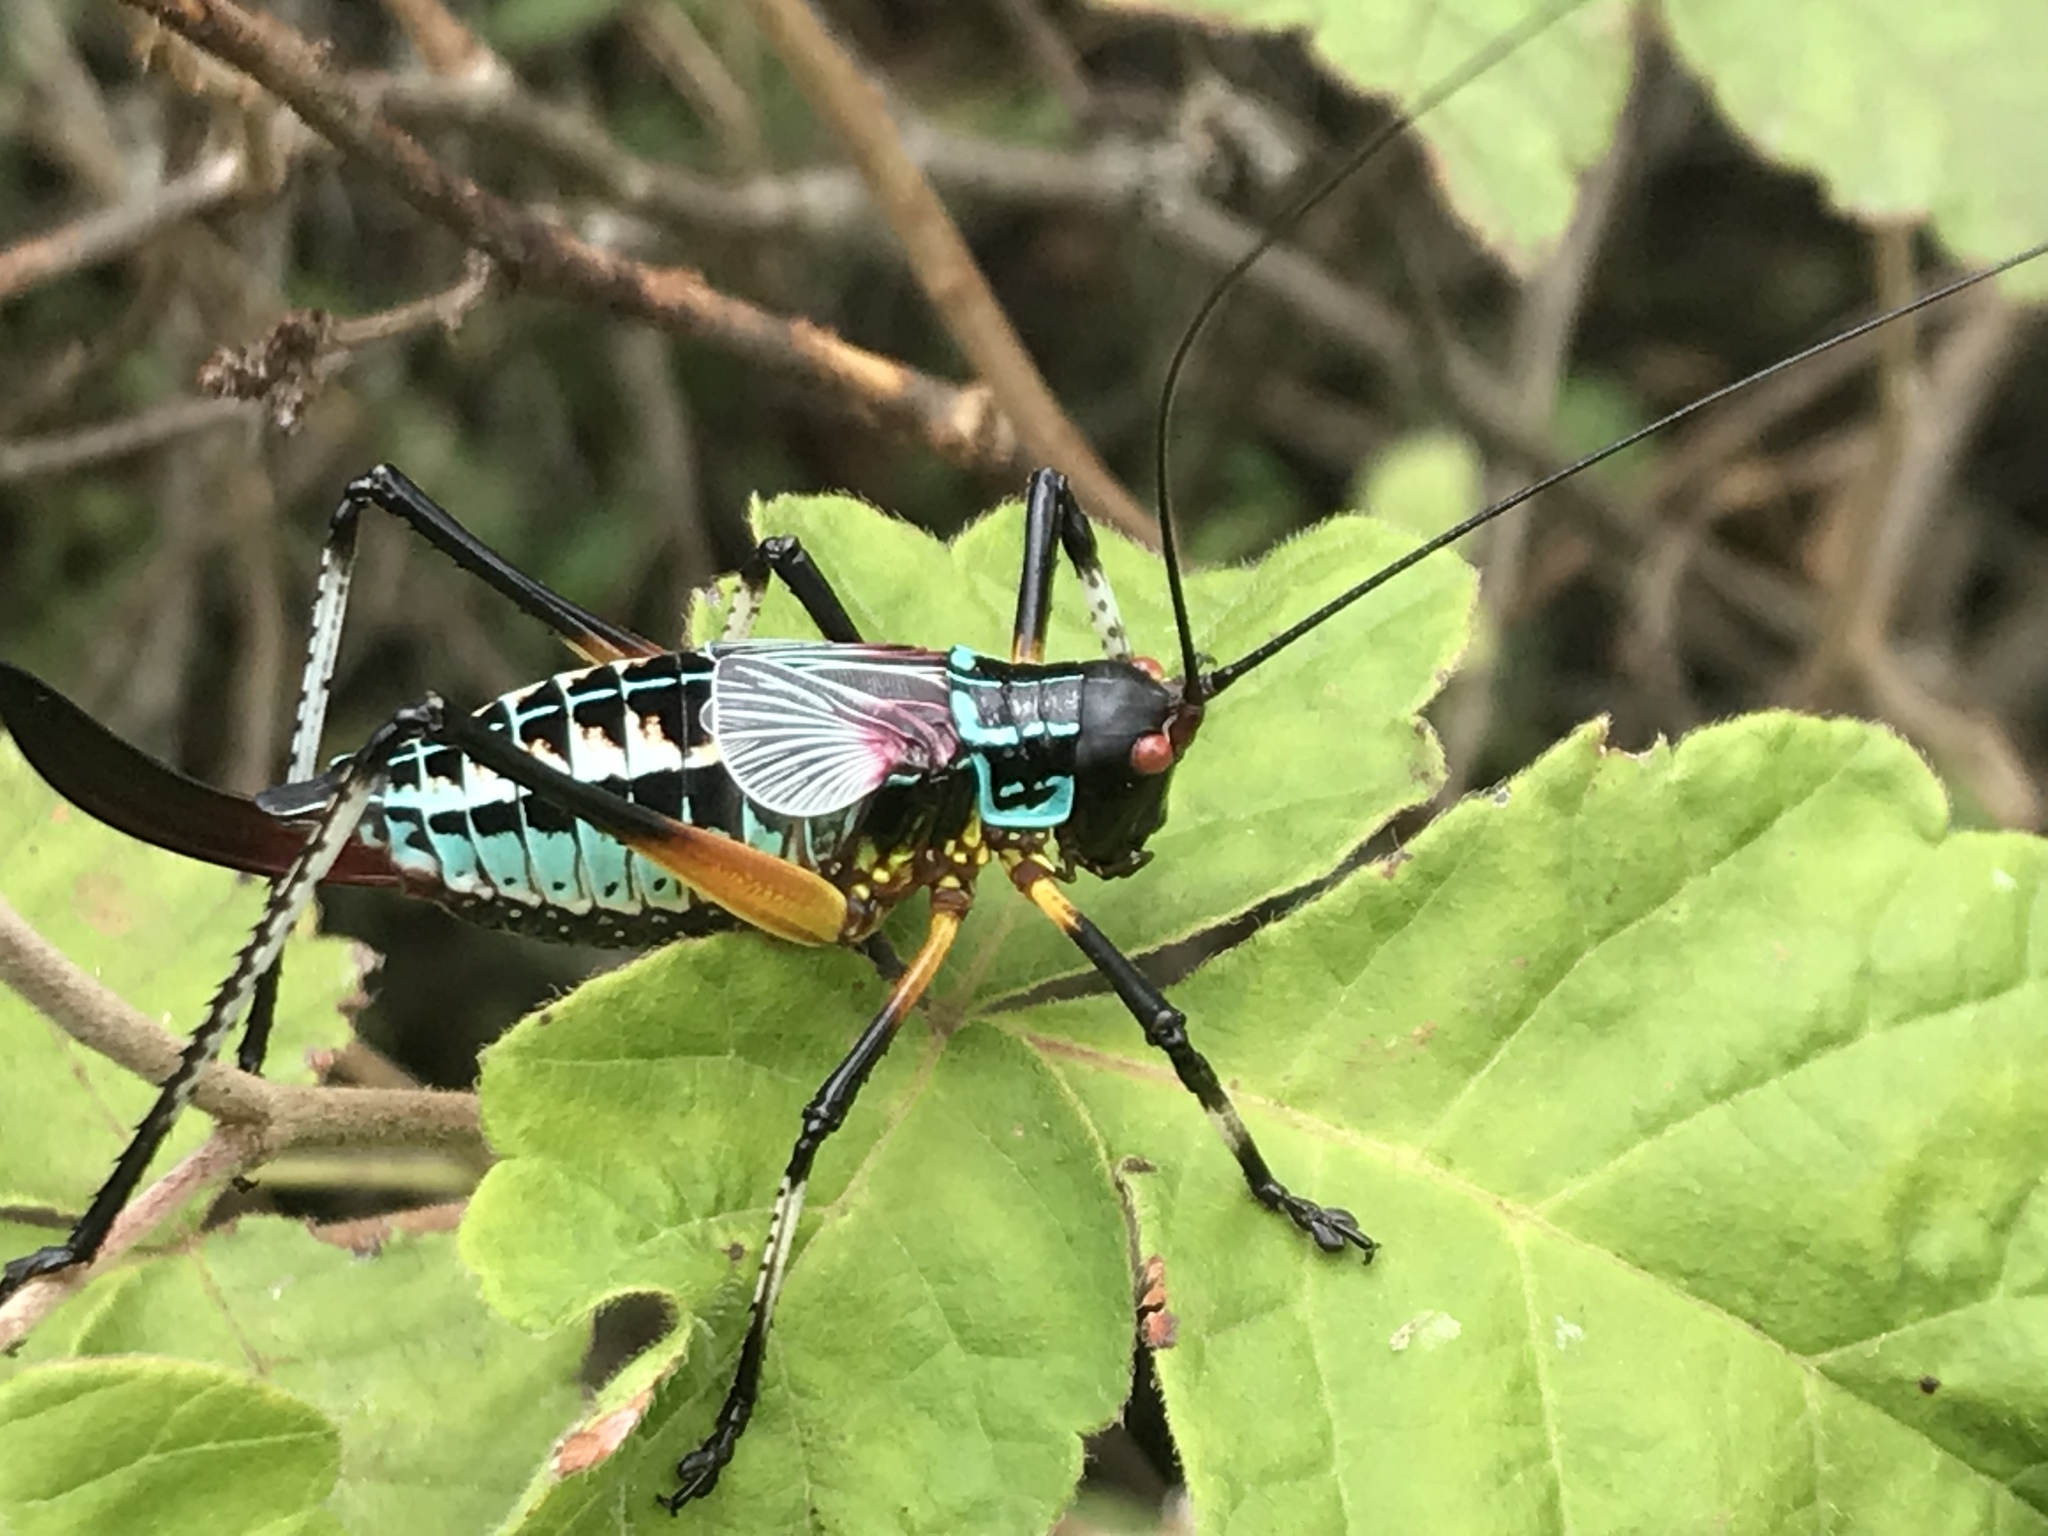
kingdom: Animalia
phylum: Arthropoda
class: Insecta
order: Orthoptera
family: Tettigoniidae
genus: Pterophylla
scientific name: Pterophylla beltrani
